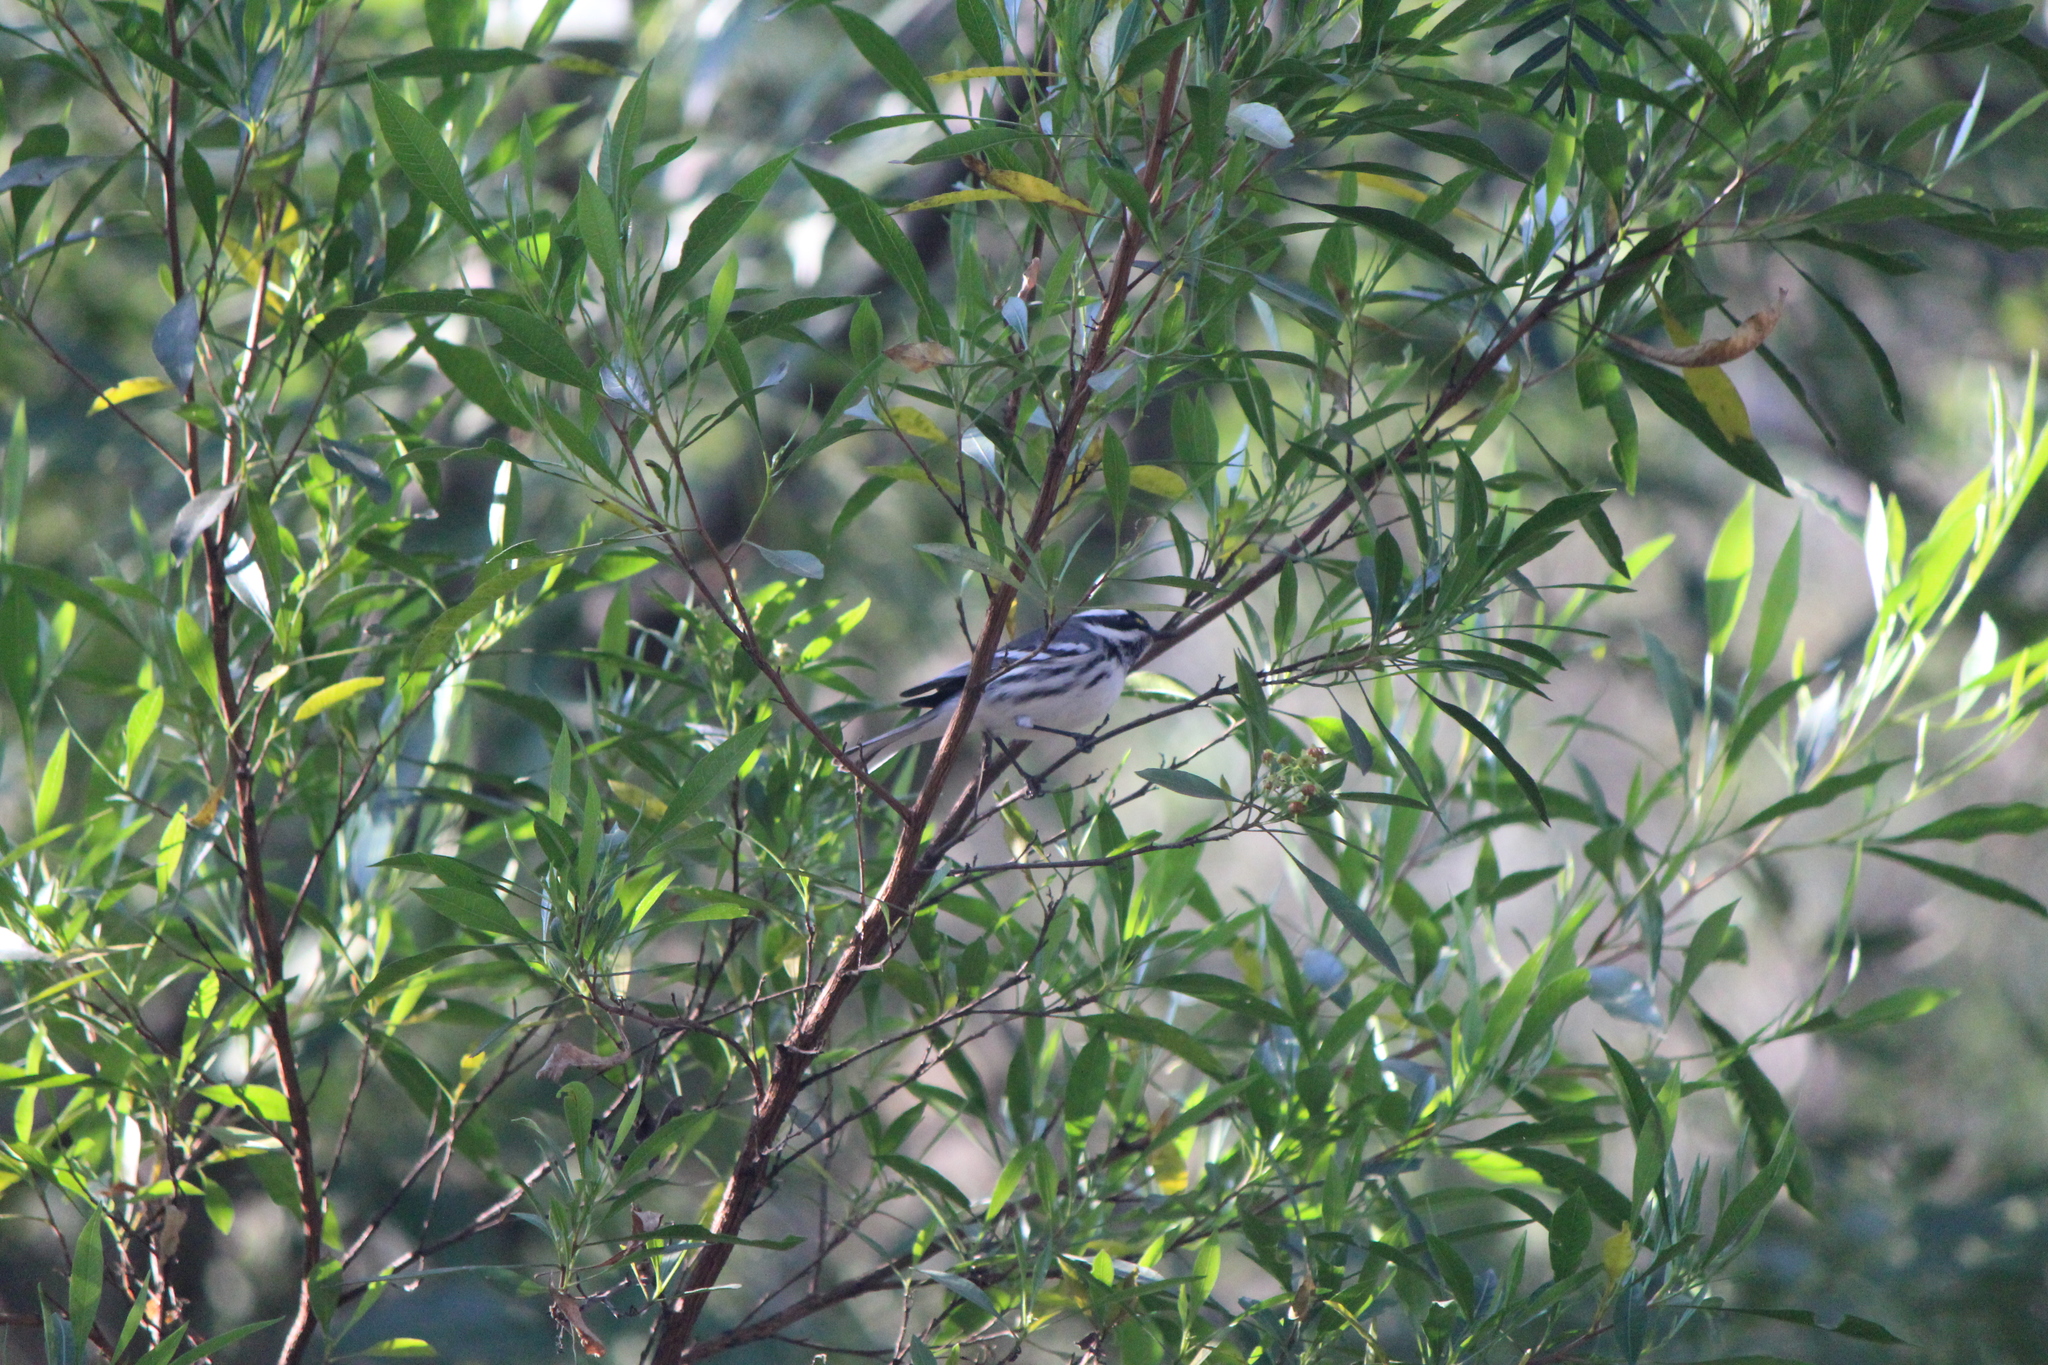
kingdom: Animalia
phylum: Chordata
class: Aves
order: Passeriformes
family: Parulidae
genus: Setophaga
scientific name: Setophaga nigrescens
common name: Black-throated gray warbler
